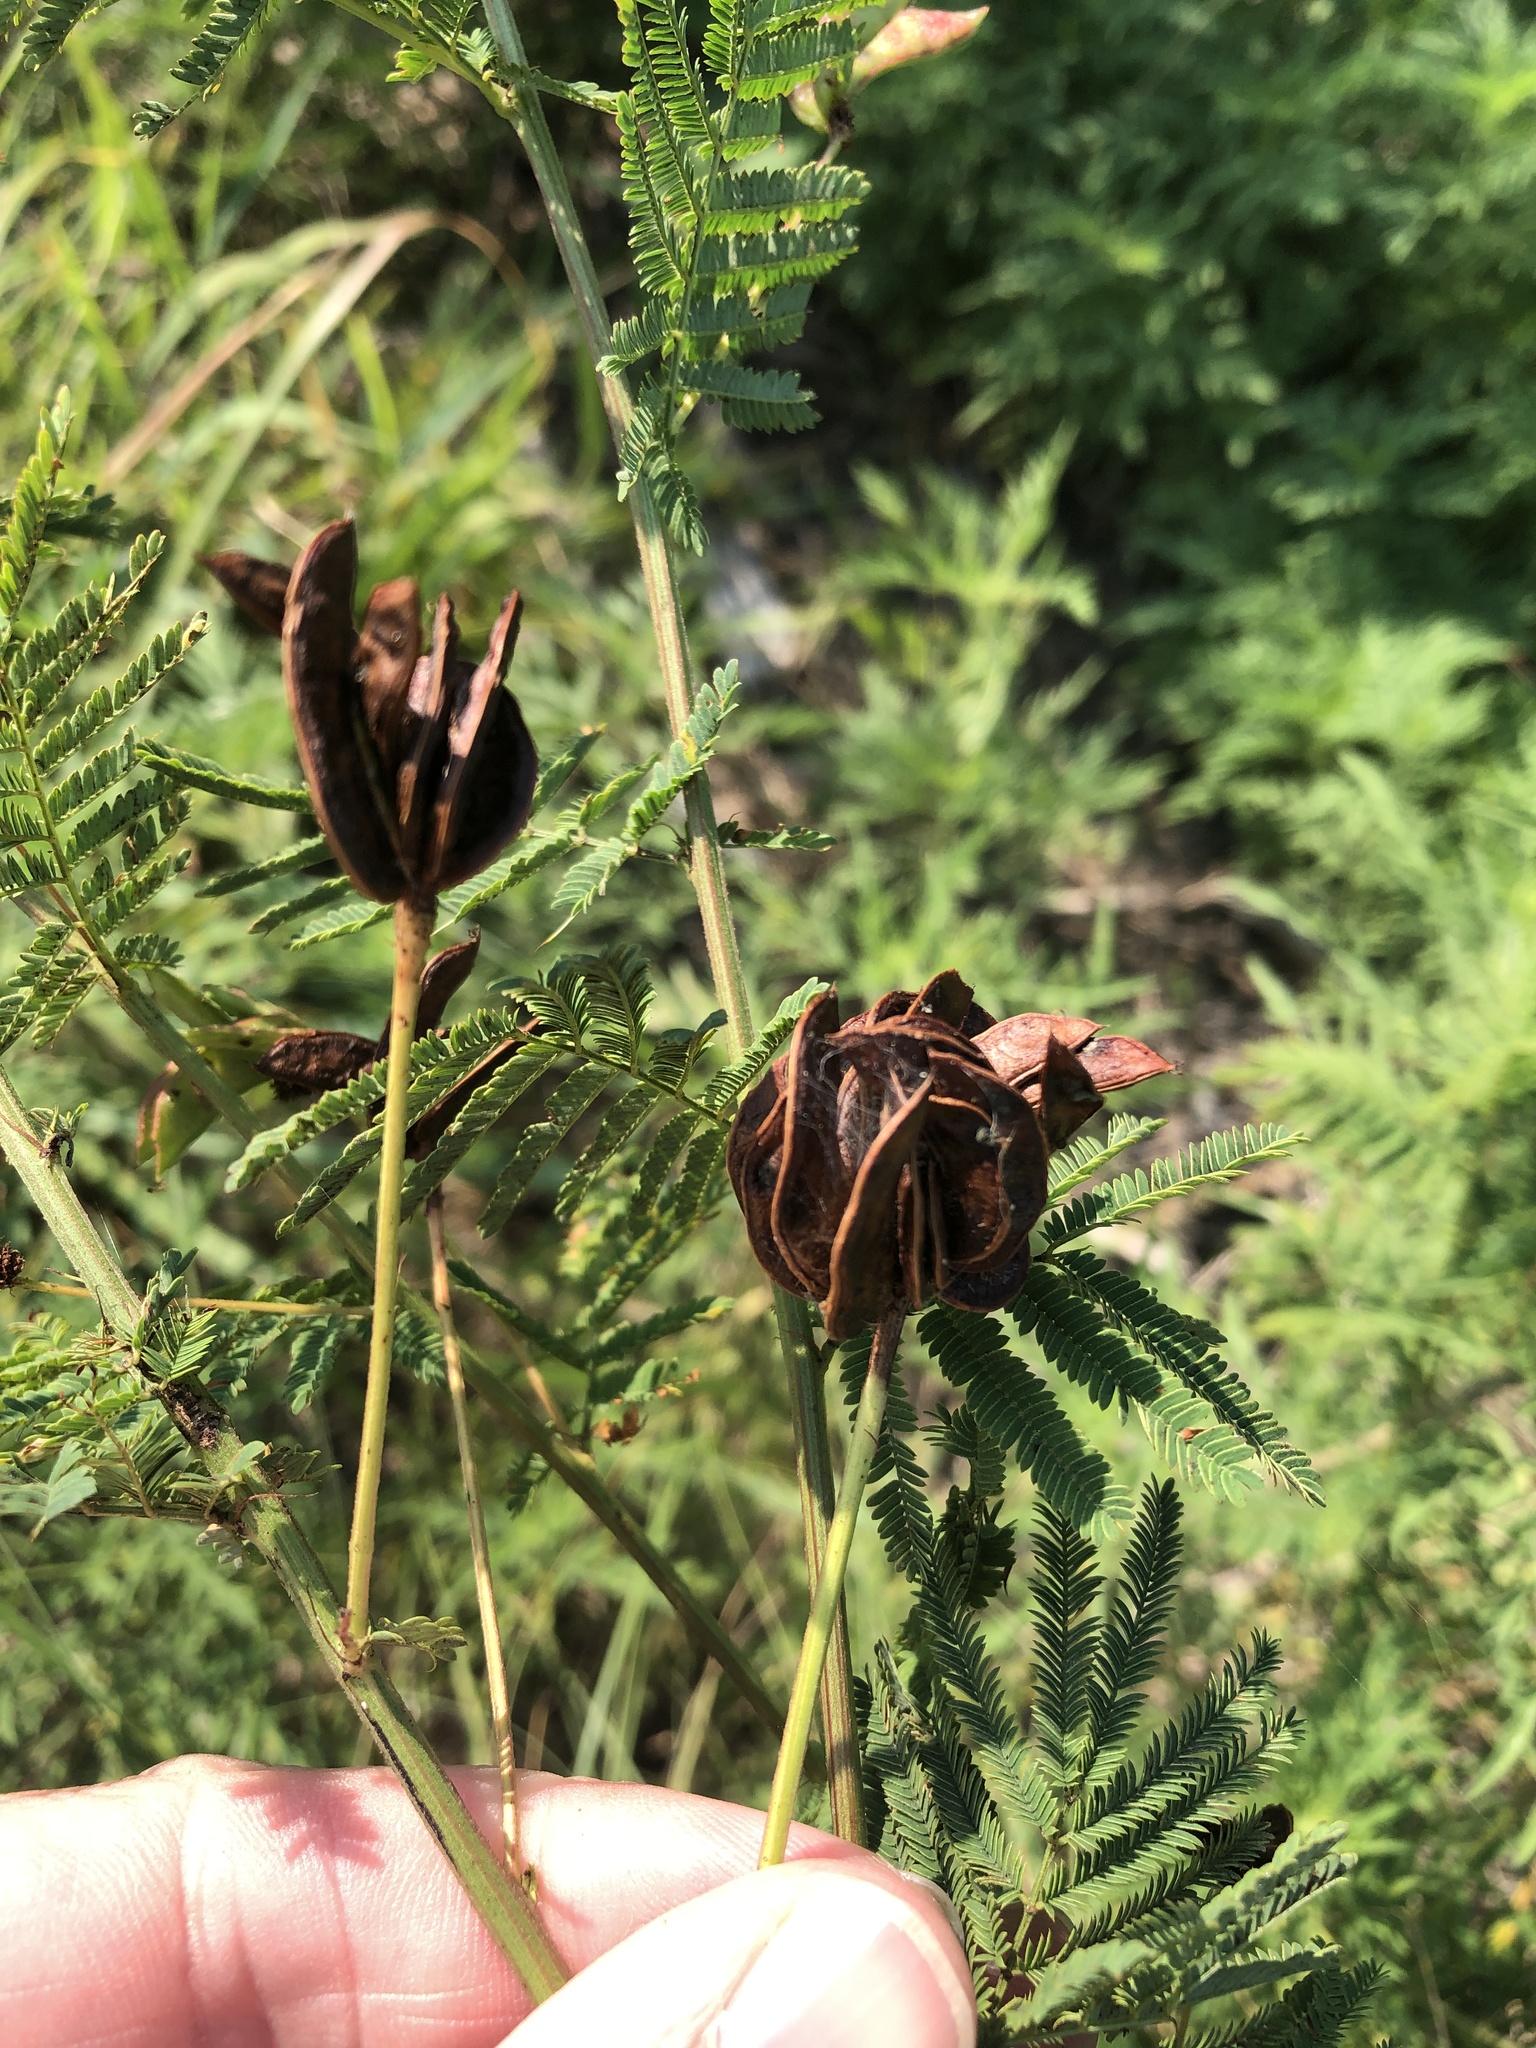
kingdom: Plantae
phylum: Tracheophyta
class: Magnoliopsida
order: Fabales
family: Fabaceae
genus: Desmanthus
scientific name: Desmanthus illinoensis
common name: Illinois bundle-flower
